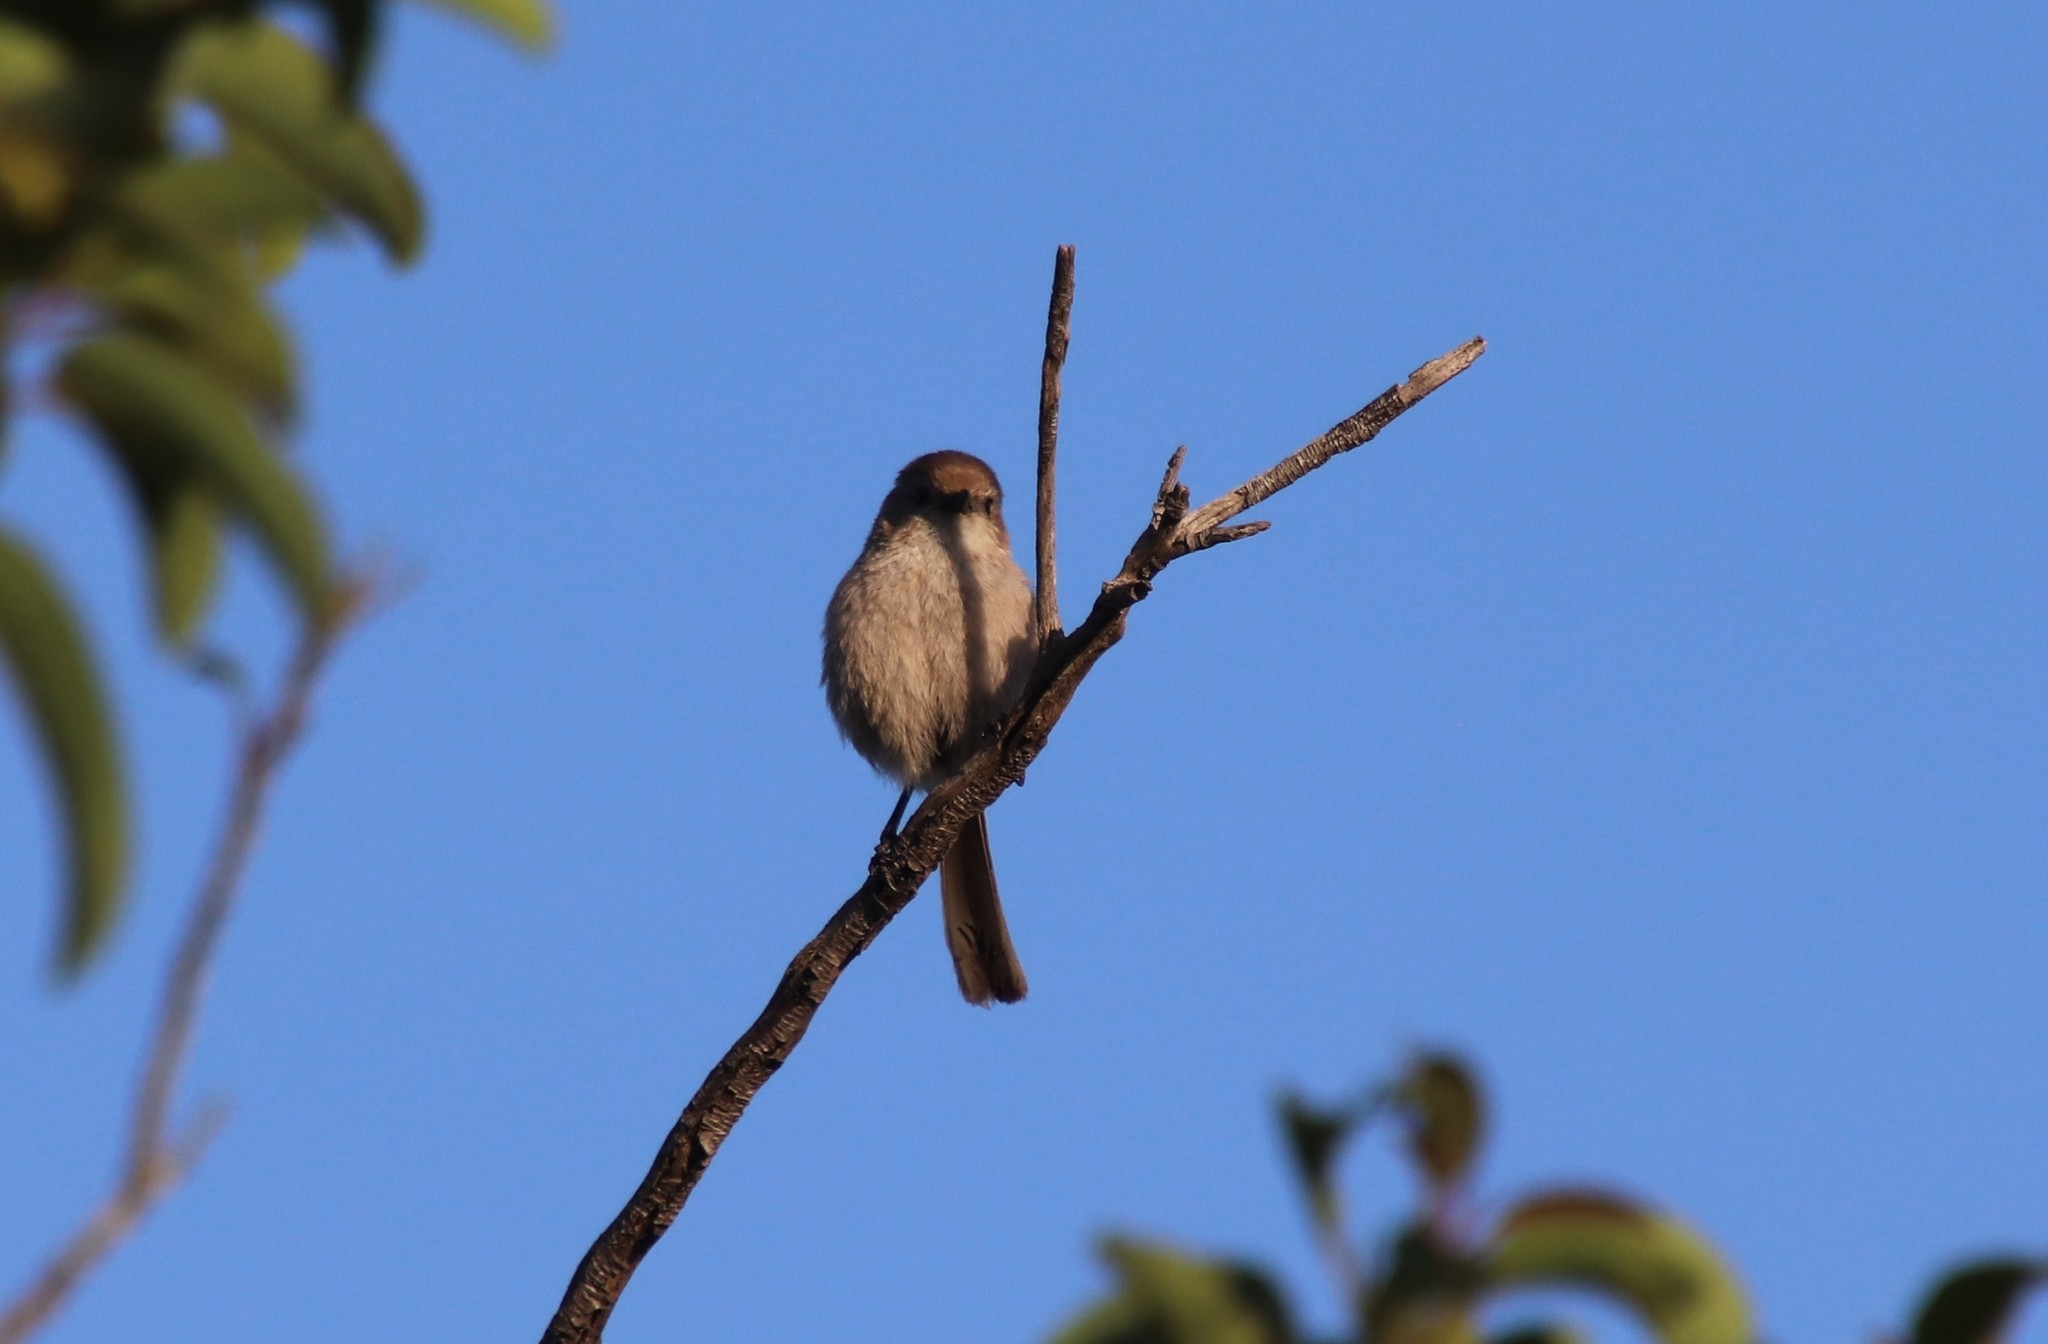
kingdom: Animalia
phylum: Chordata
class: Aves
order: Passeriformes
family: Aegithalidae
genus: Psaltriparus
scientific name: Psaltriparus minimus
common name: American bushtit
